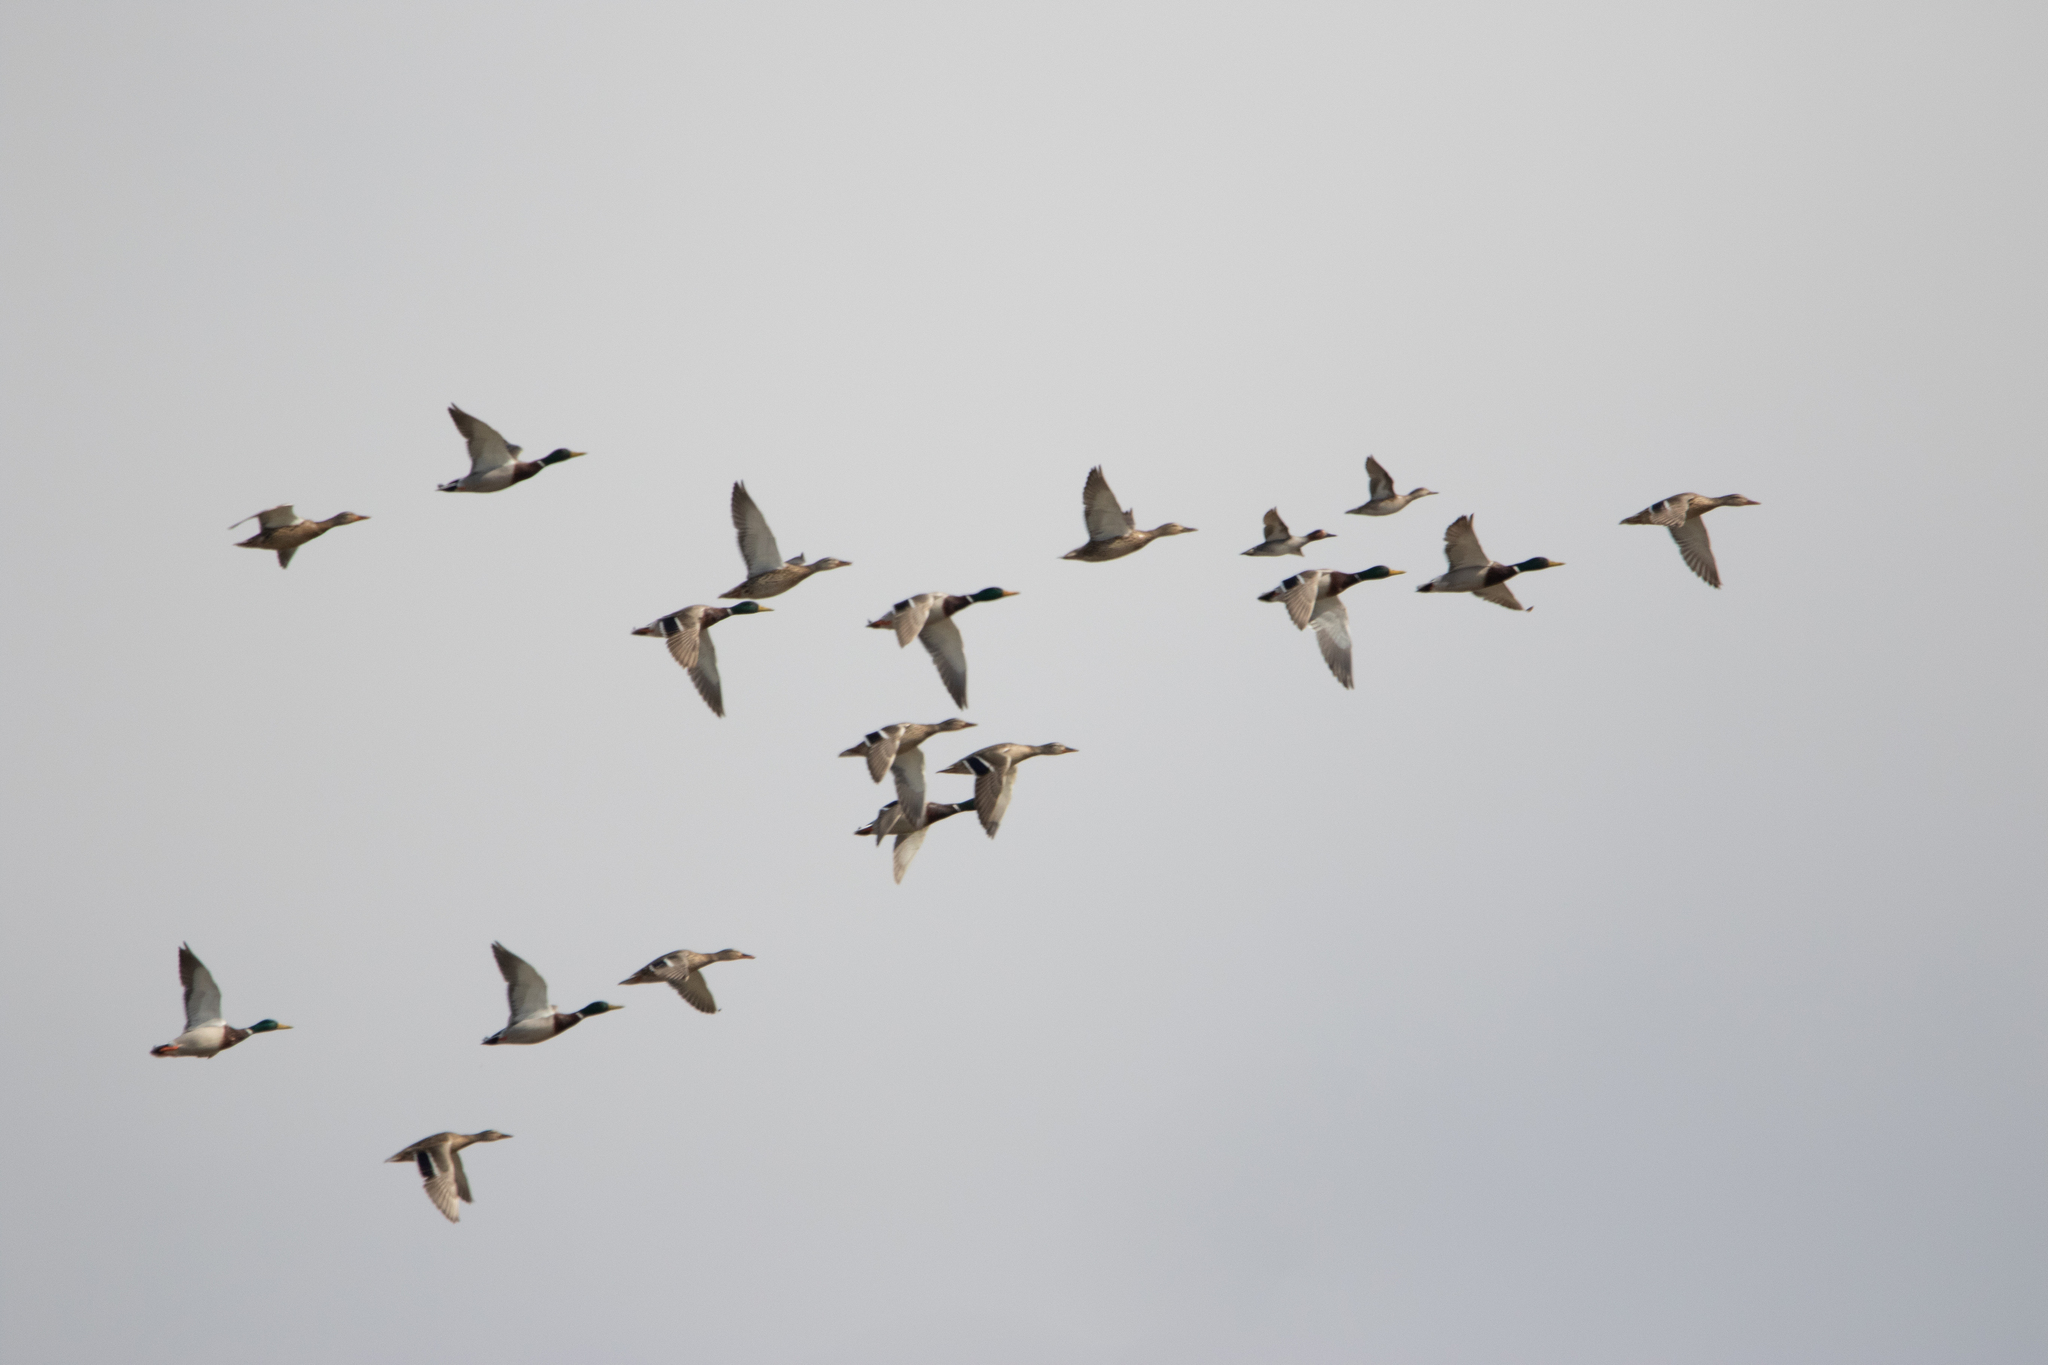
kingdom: Animalia
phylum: Chordata
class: Aves
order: Anseriformes
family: Anatidae
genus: Anas
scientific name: Anas platyrhynchos
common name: Mallard
